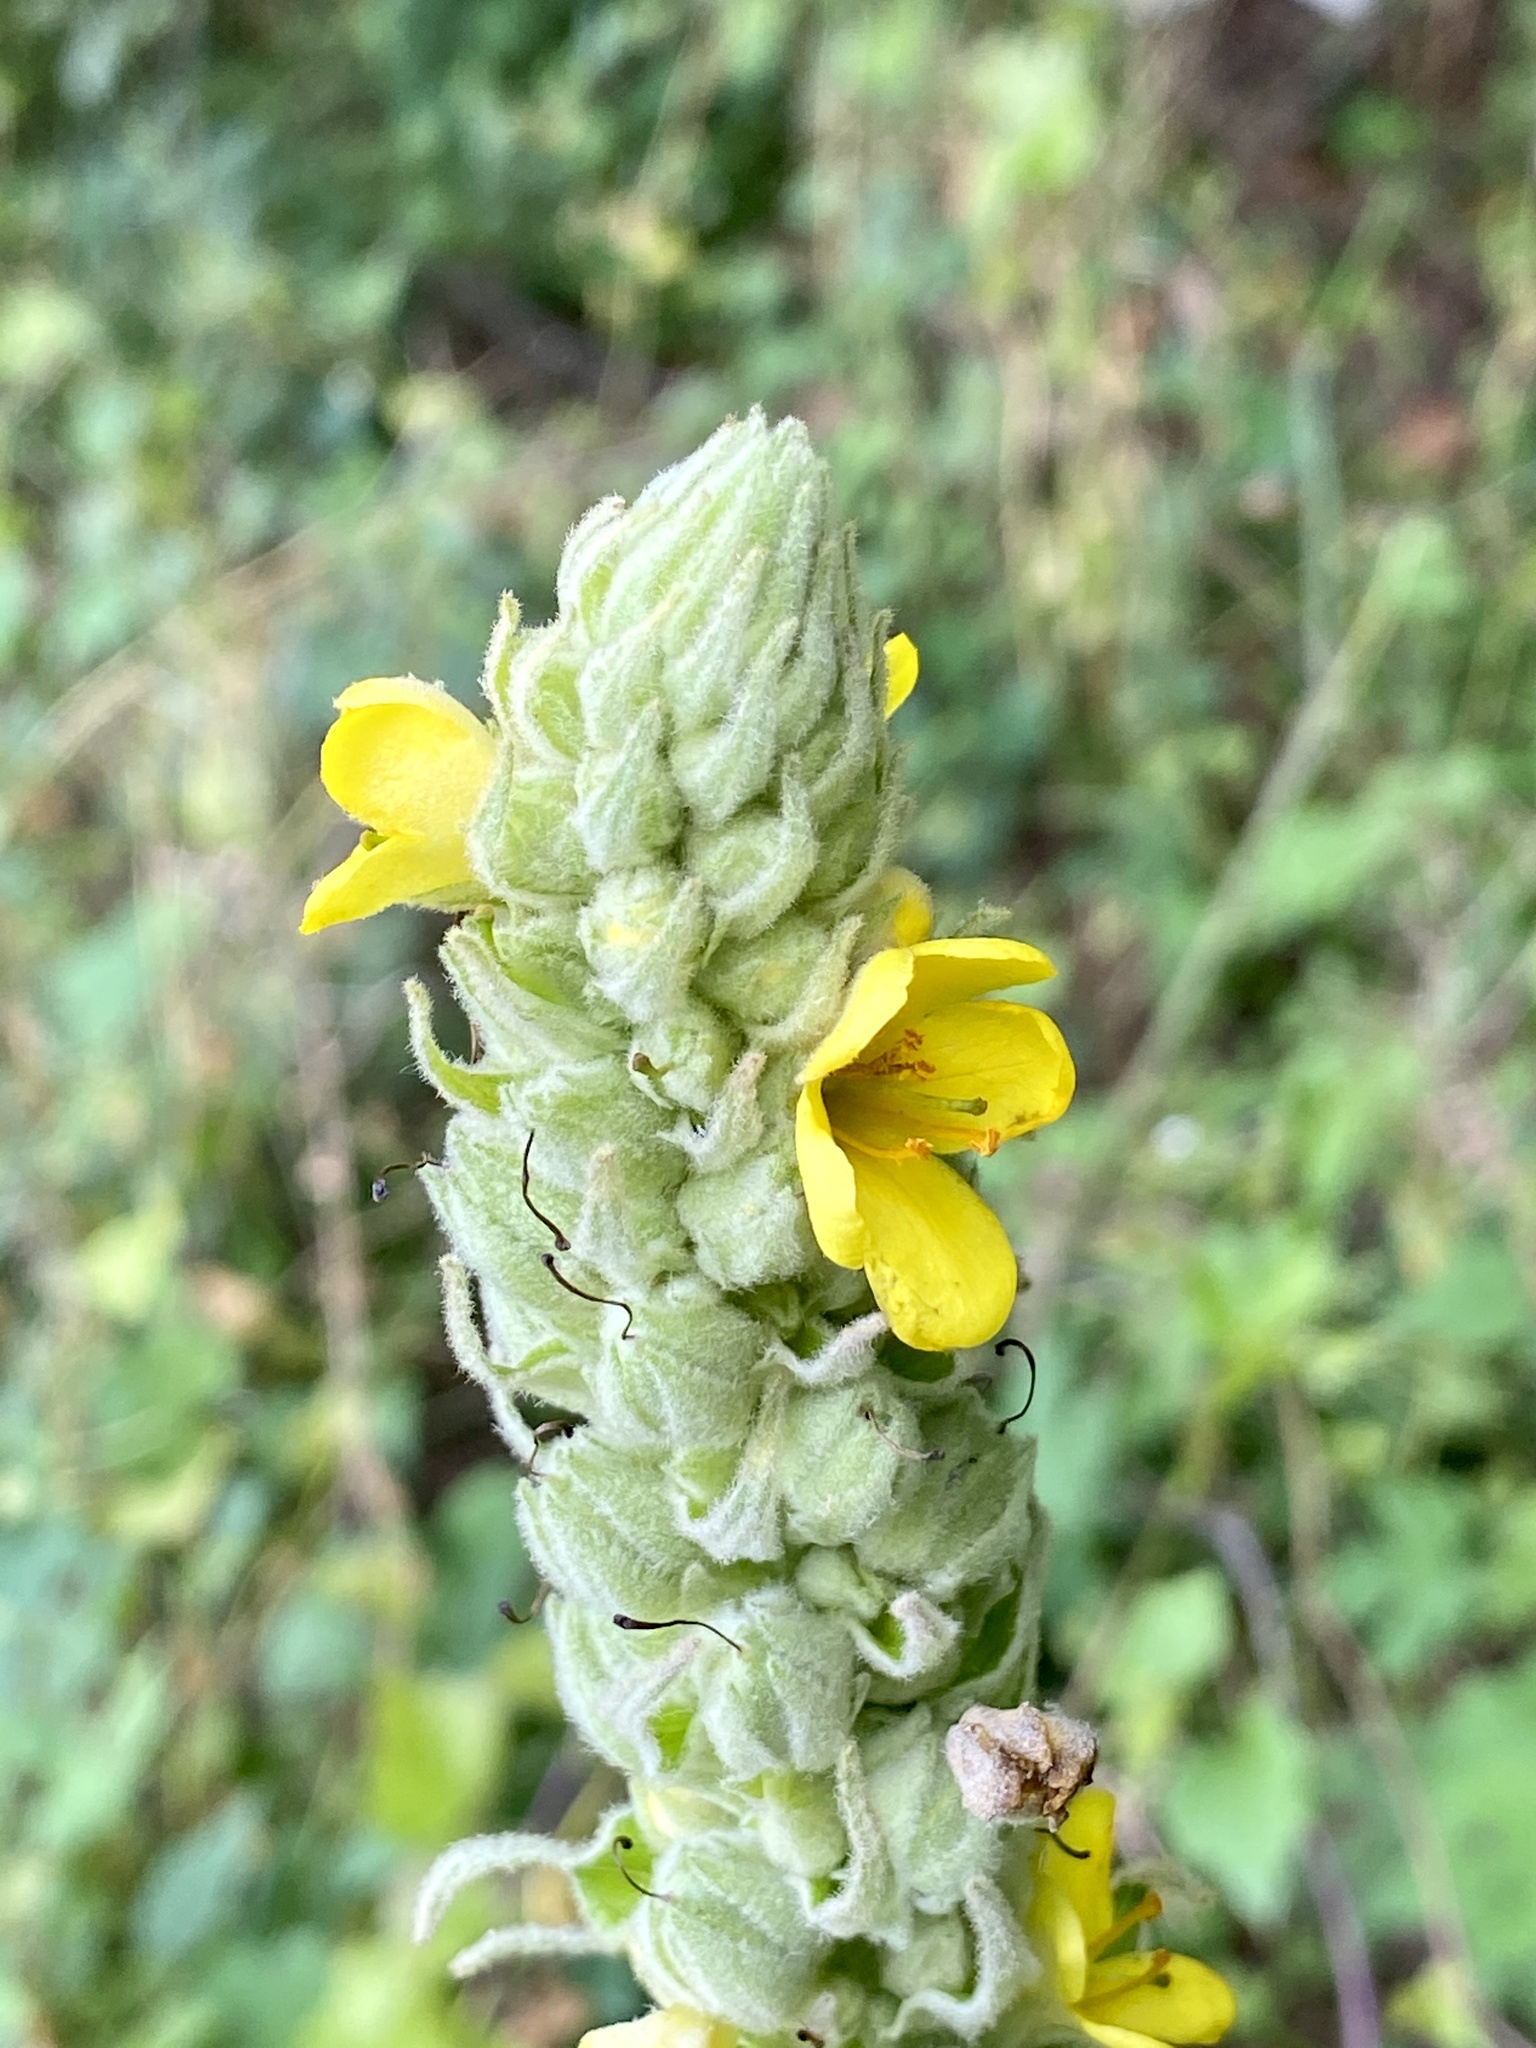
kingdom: Plantae
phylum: Tracheophyta
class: Magnoliopsida
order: Lamiales
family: Scrophulariaceae
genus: Verbascum
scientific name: Verbascum thapsus
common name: Common mullein
